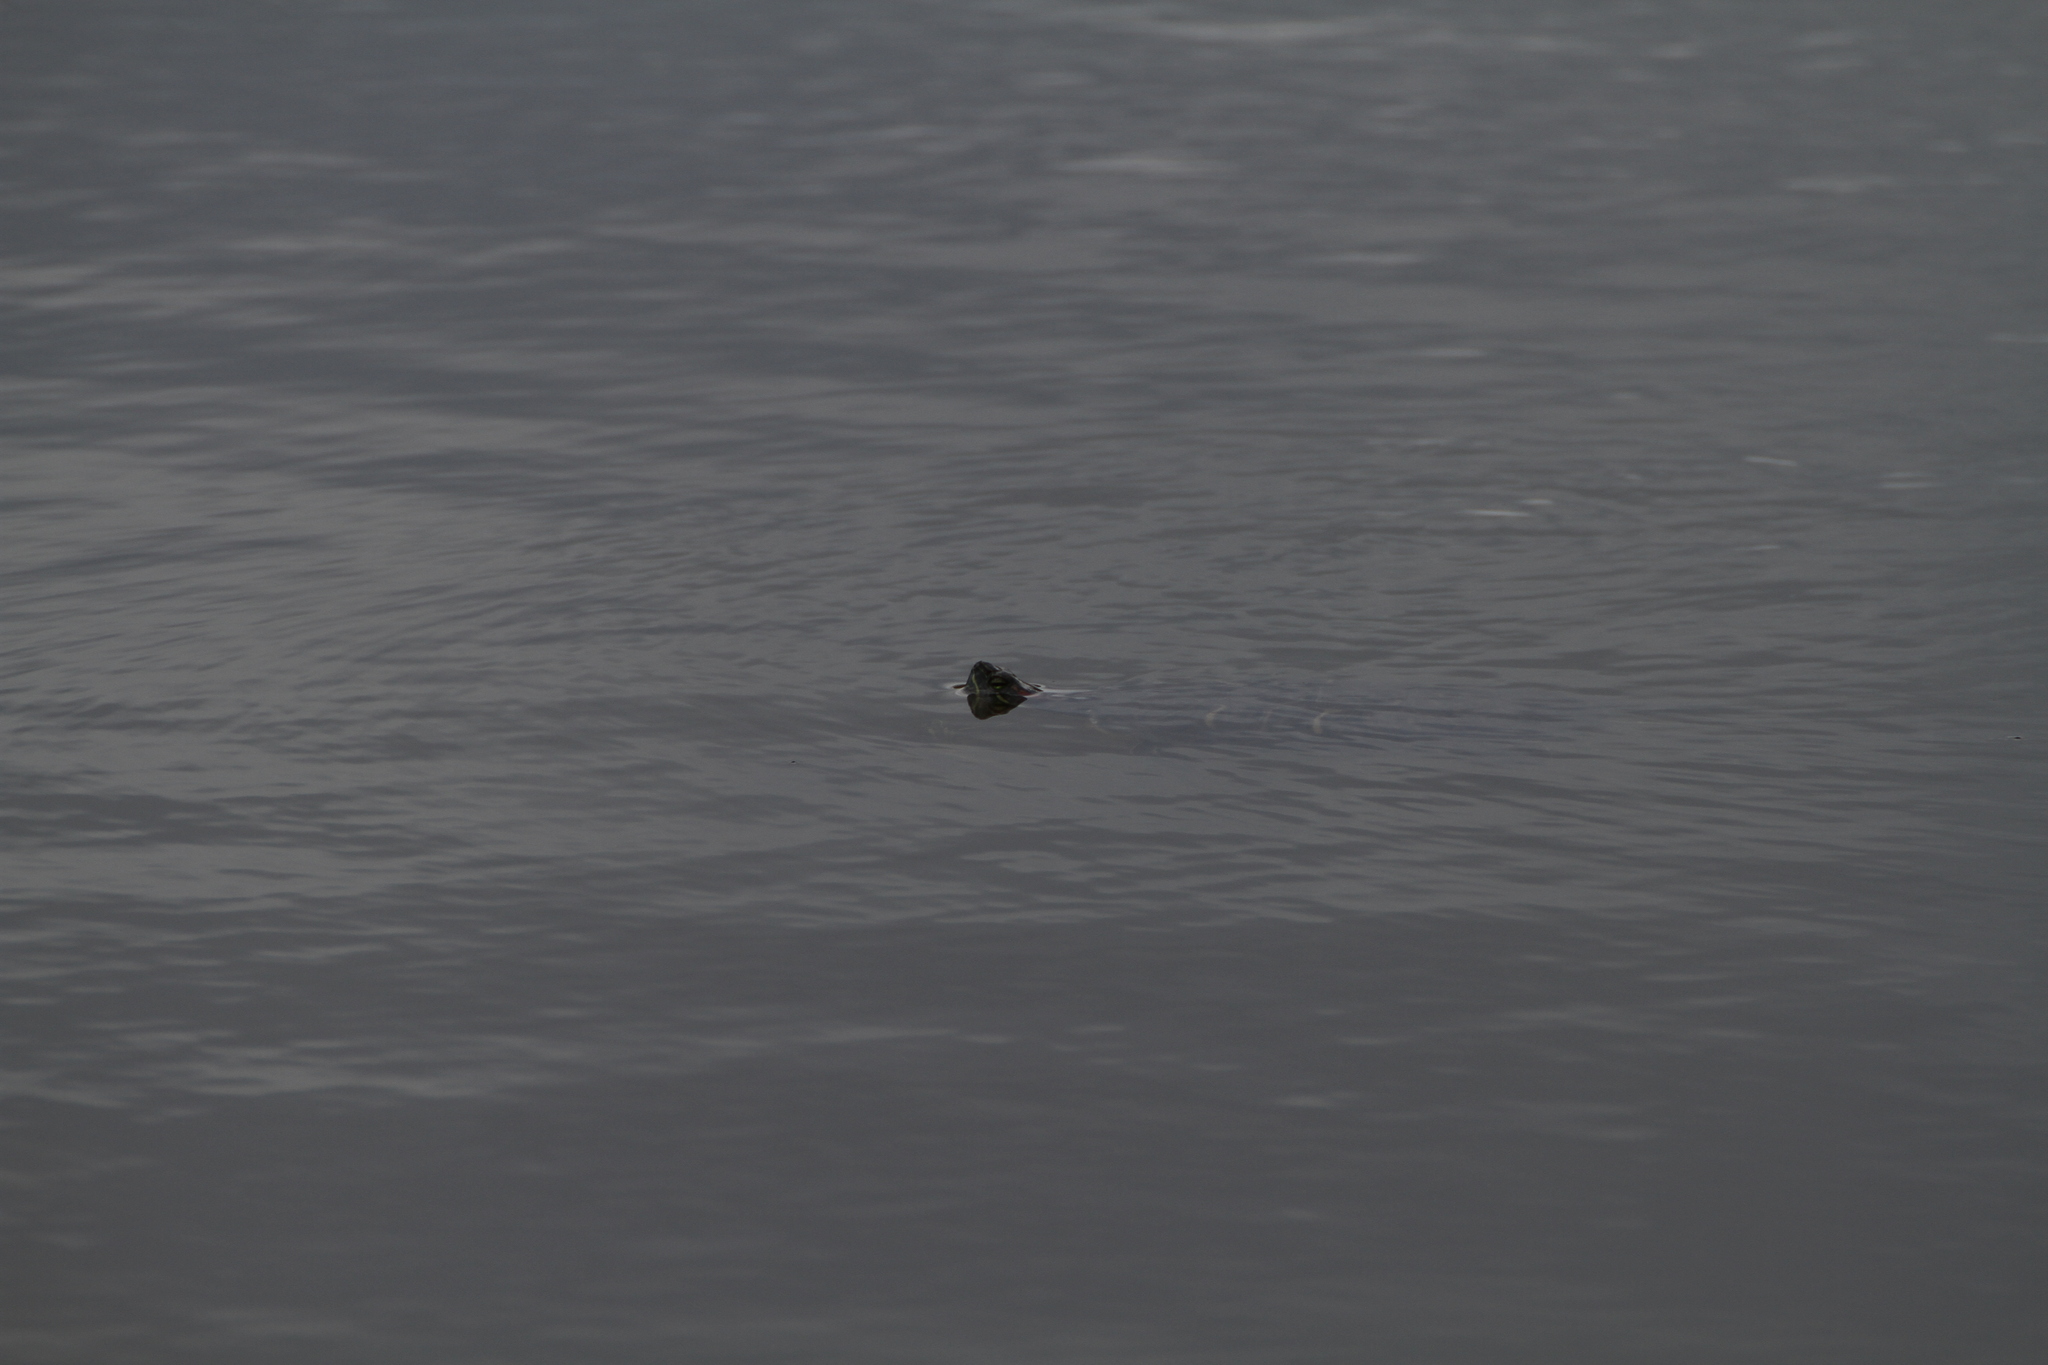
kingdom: Animalia
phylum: Chordata
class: Testudines
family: Emydidae
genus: Trachemys
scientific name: Trachemys scripta
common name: Slider
